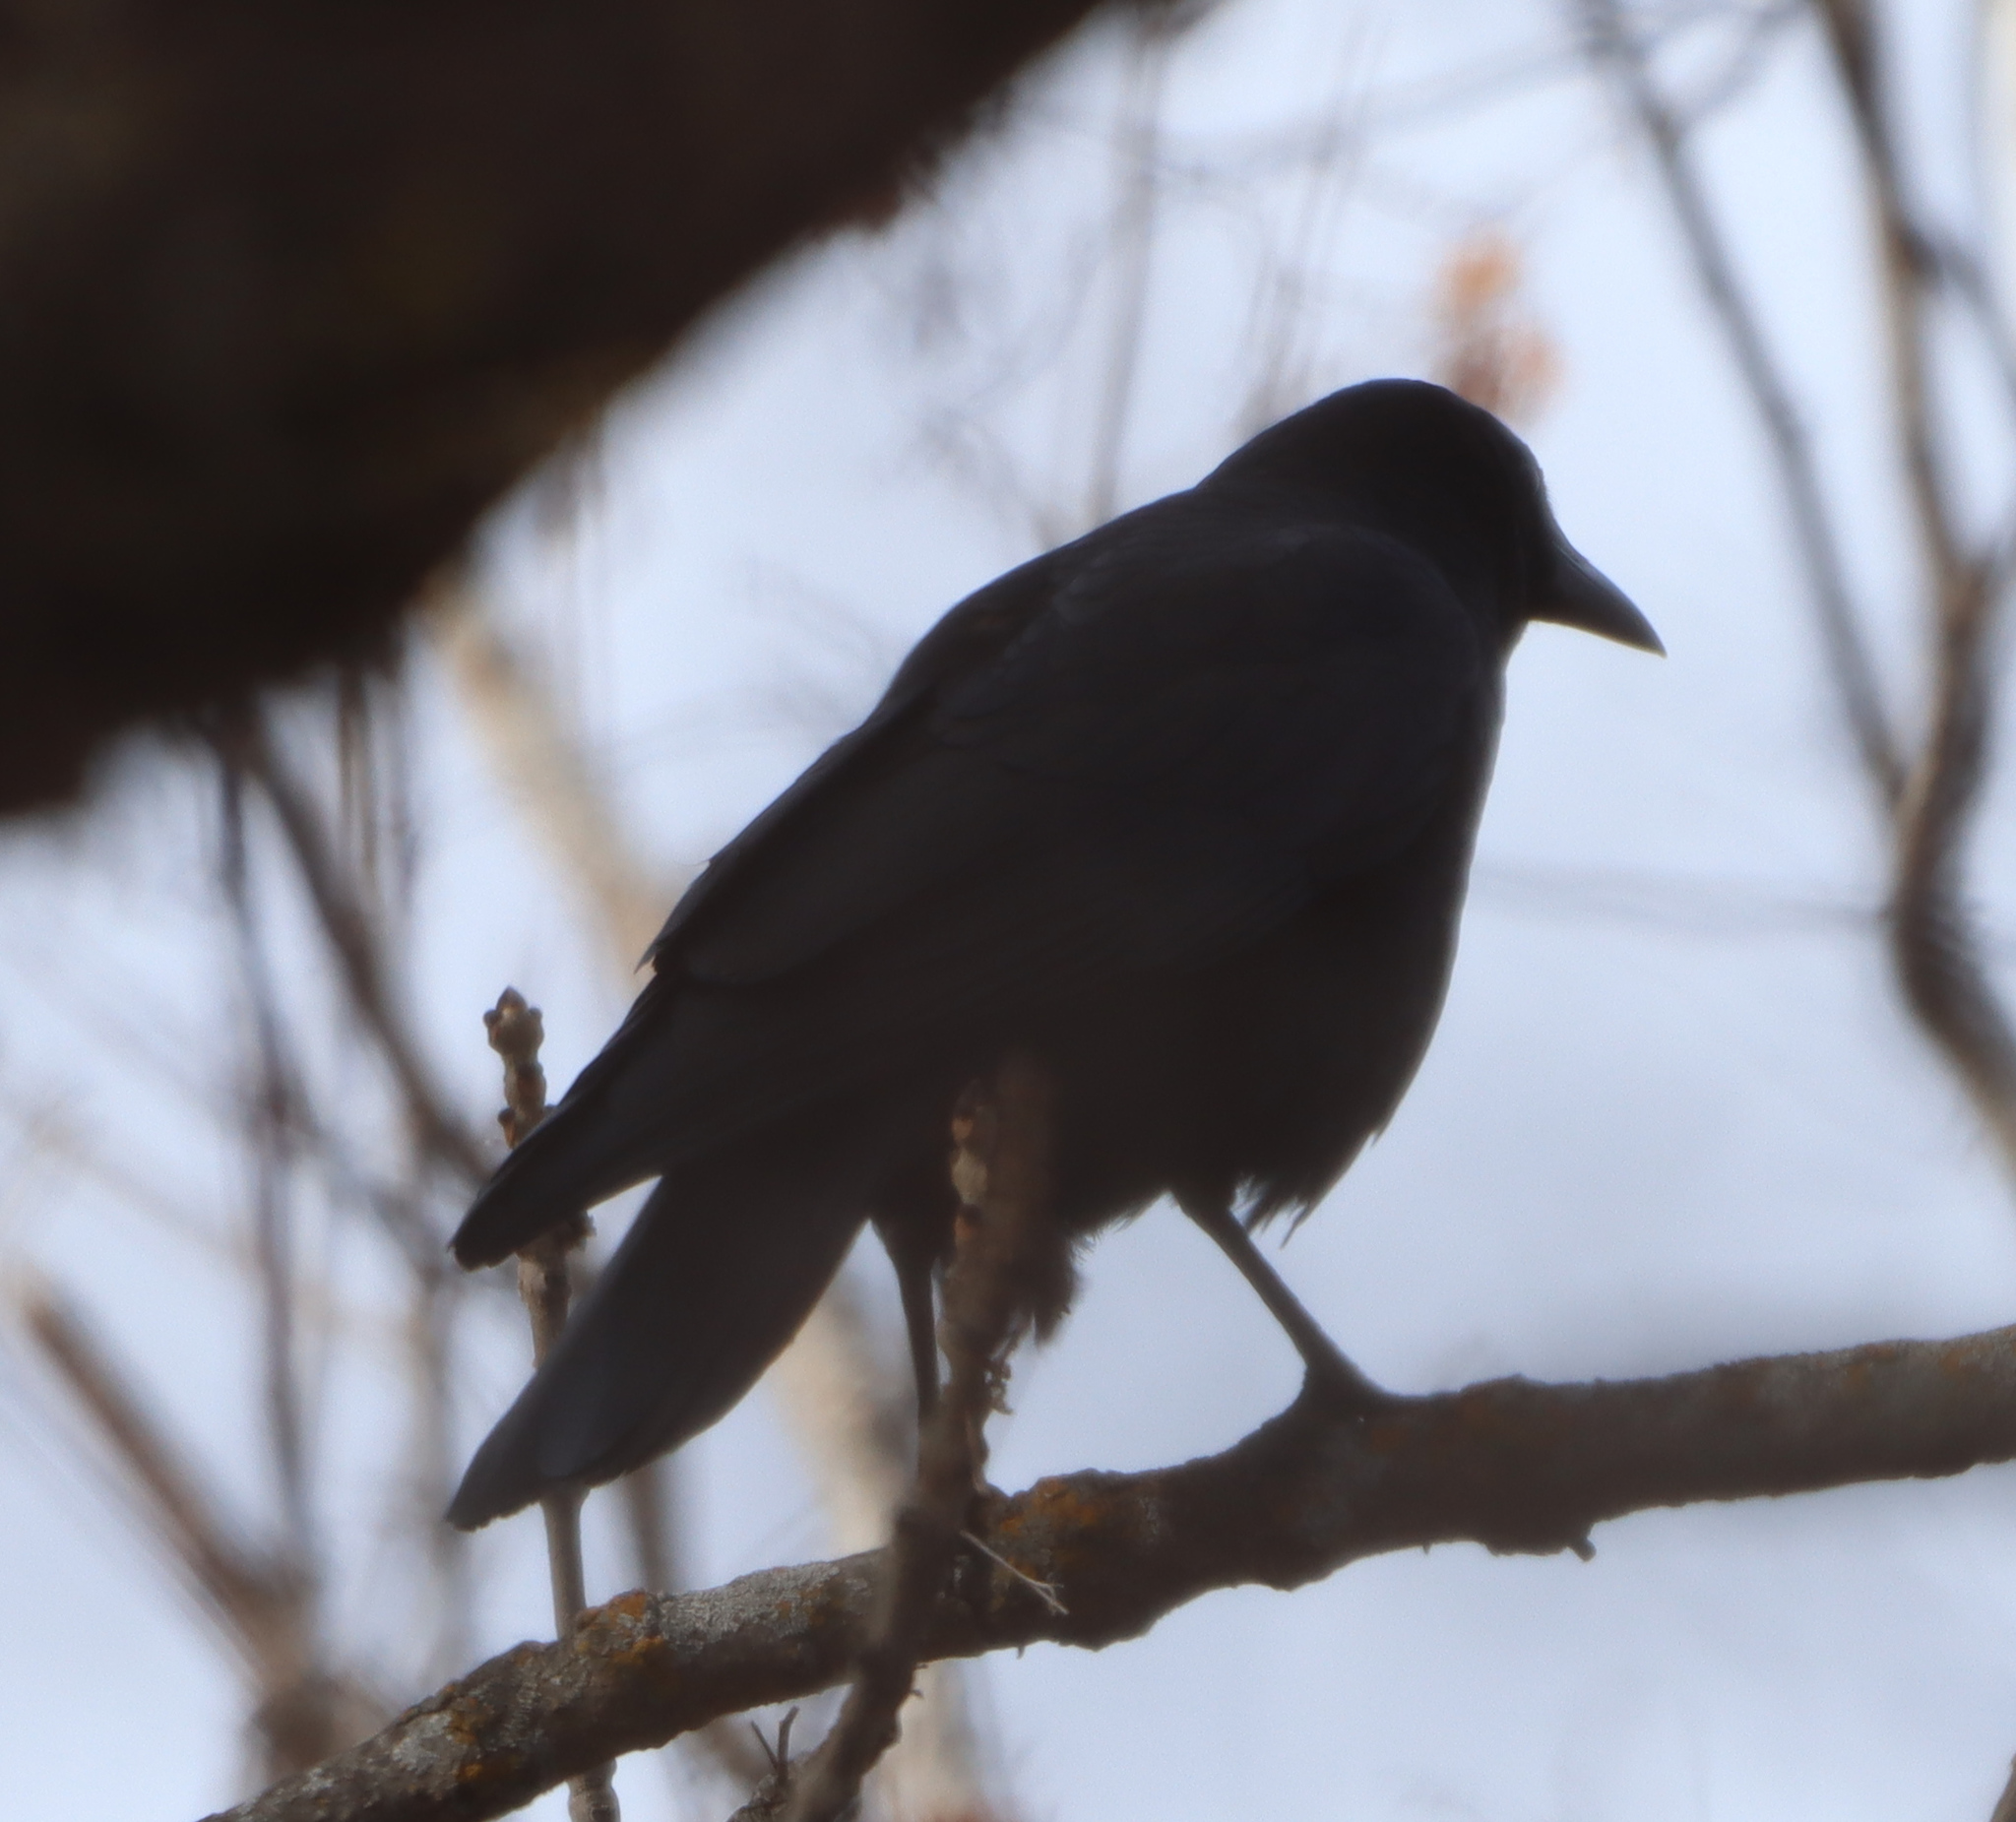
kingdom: Animalia
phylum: Chordata
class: Aves
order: Passeriformes
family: Corvidae
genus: Corvus
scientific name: Corvus brachyrhynchos
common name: American crow
